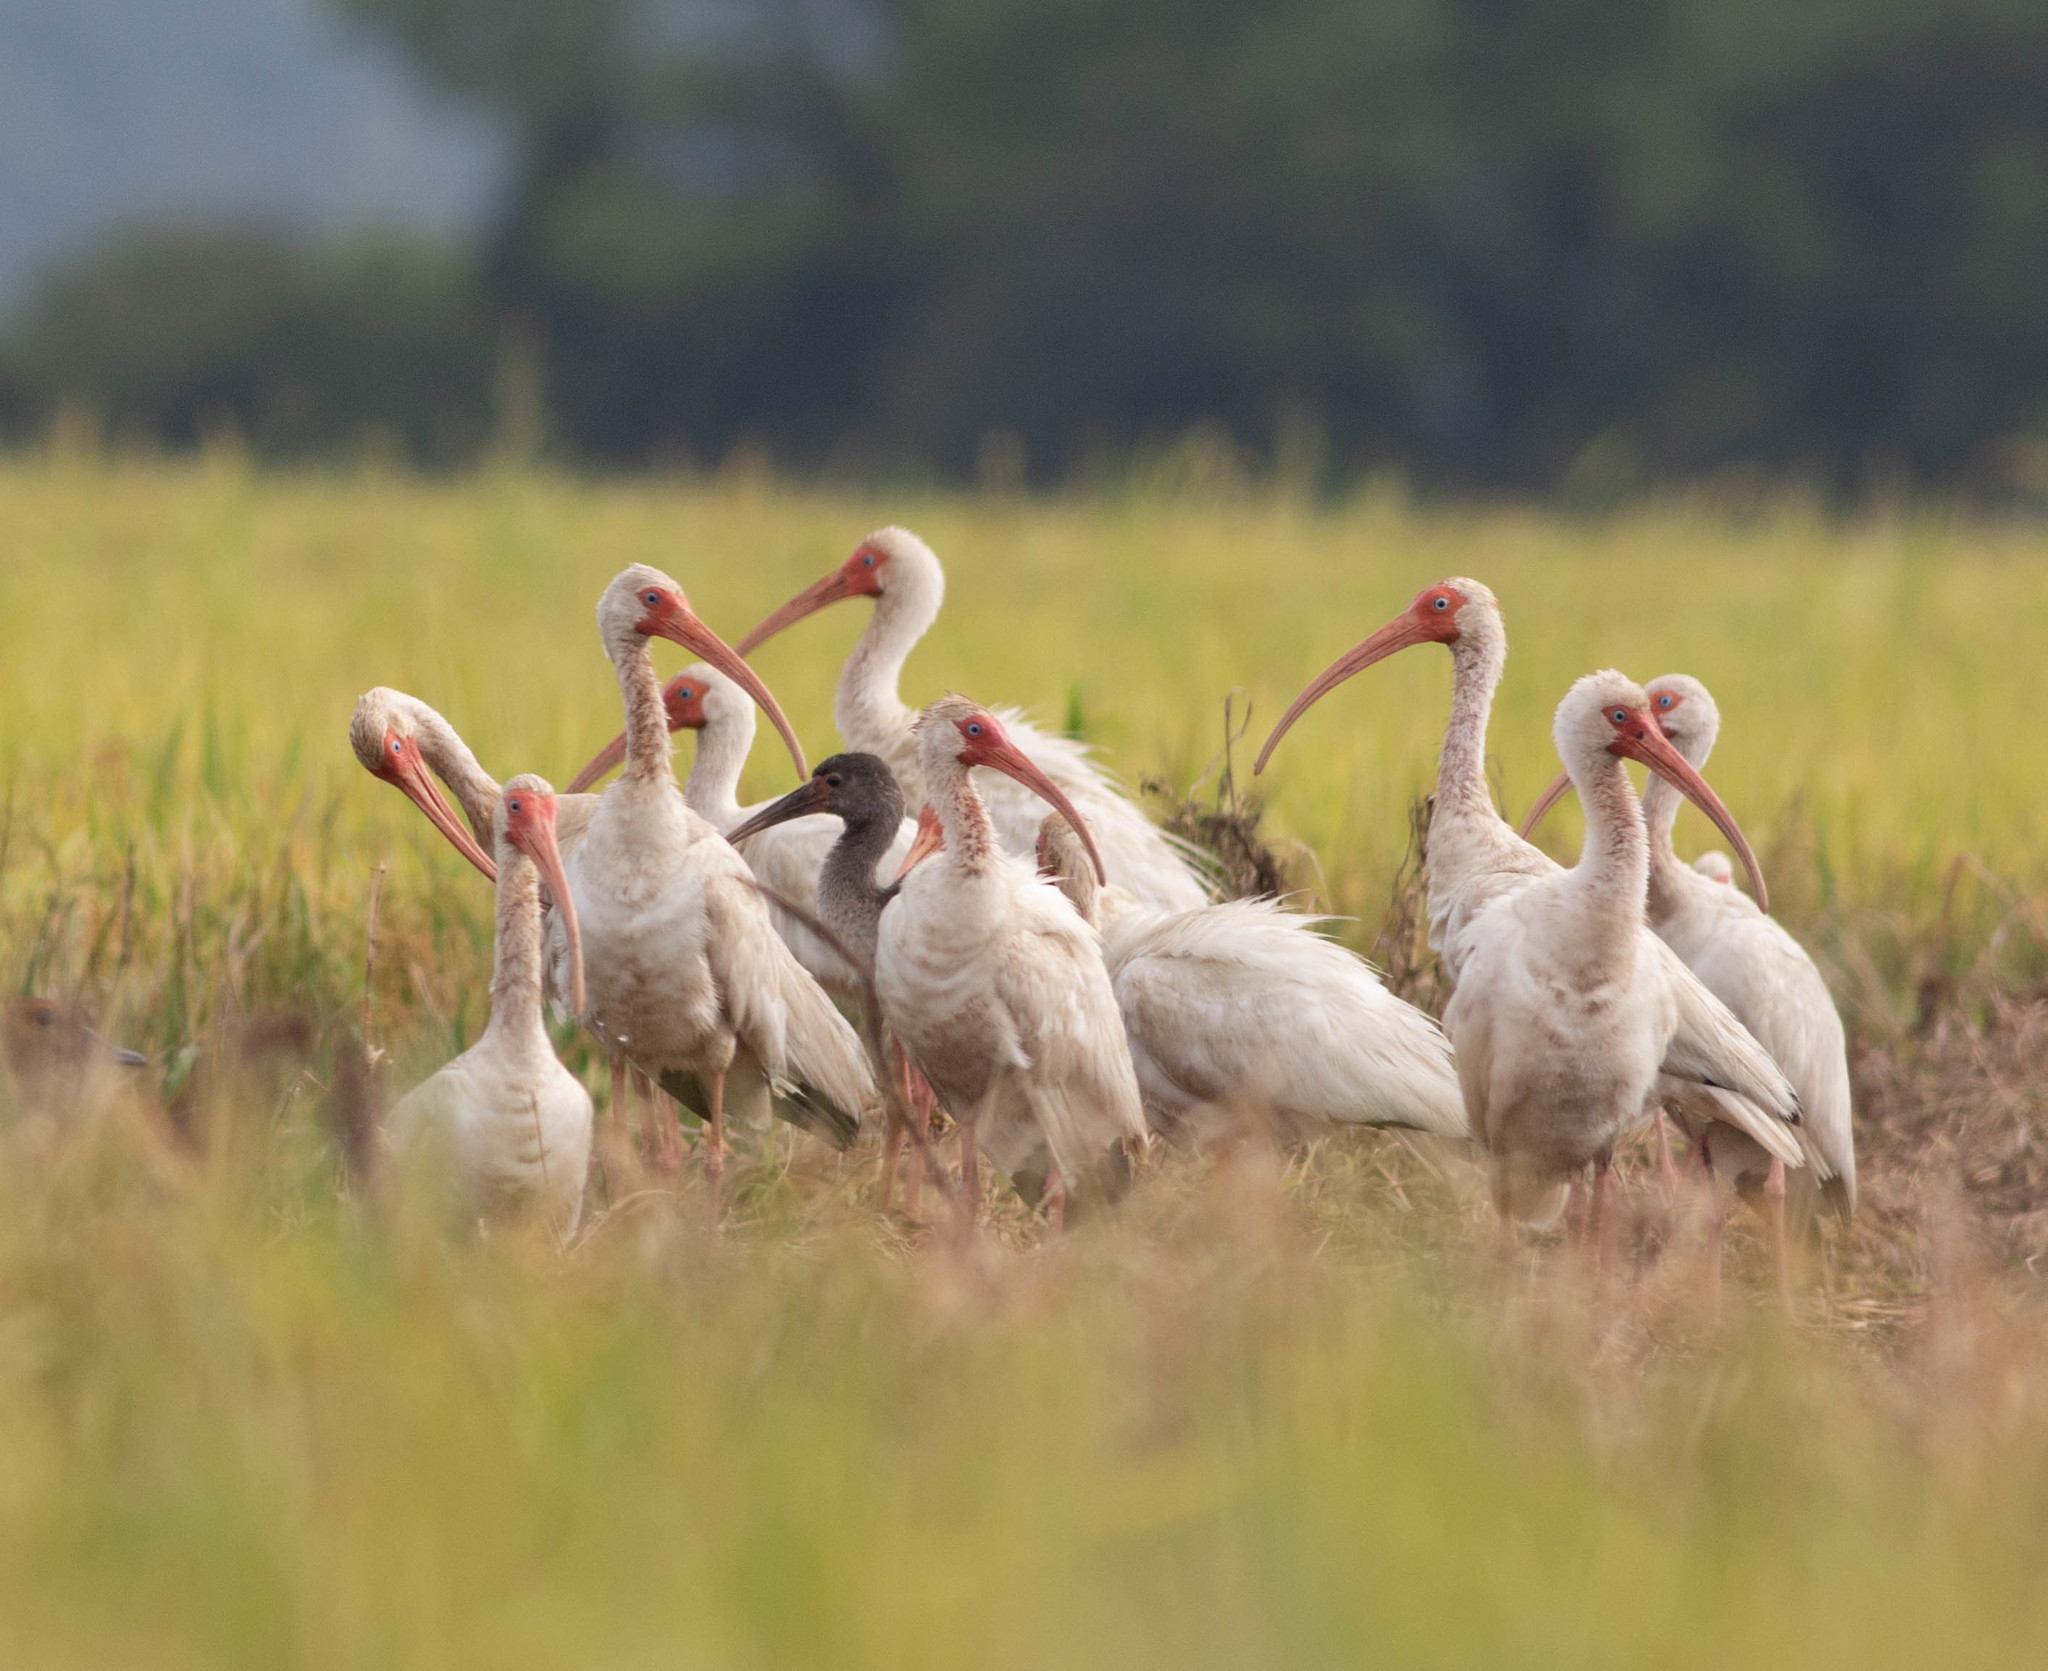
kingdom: Animalia
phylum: Chordata
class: Aves
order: Pelecaniformes
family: Threskiornithidae
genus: Eudocimus
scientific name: Eudocimus albus
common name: White ibis
